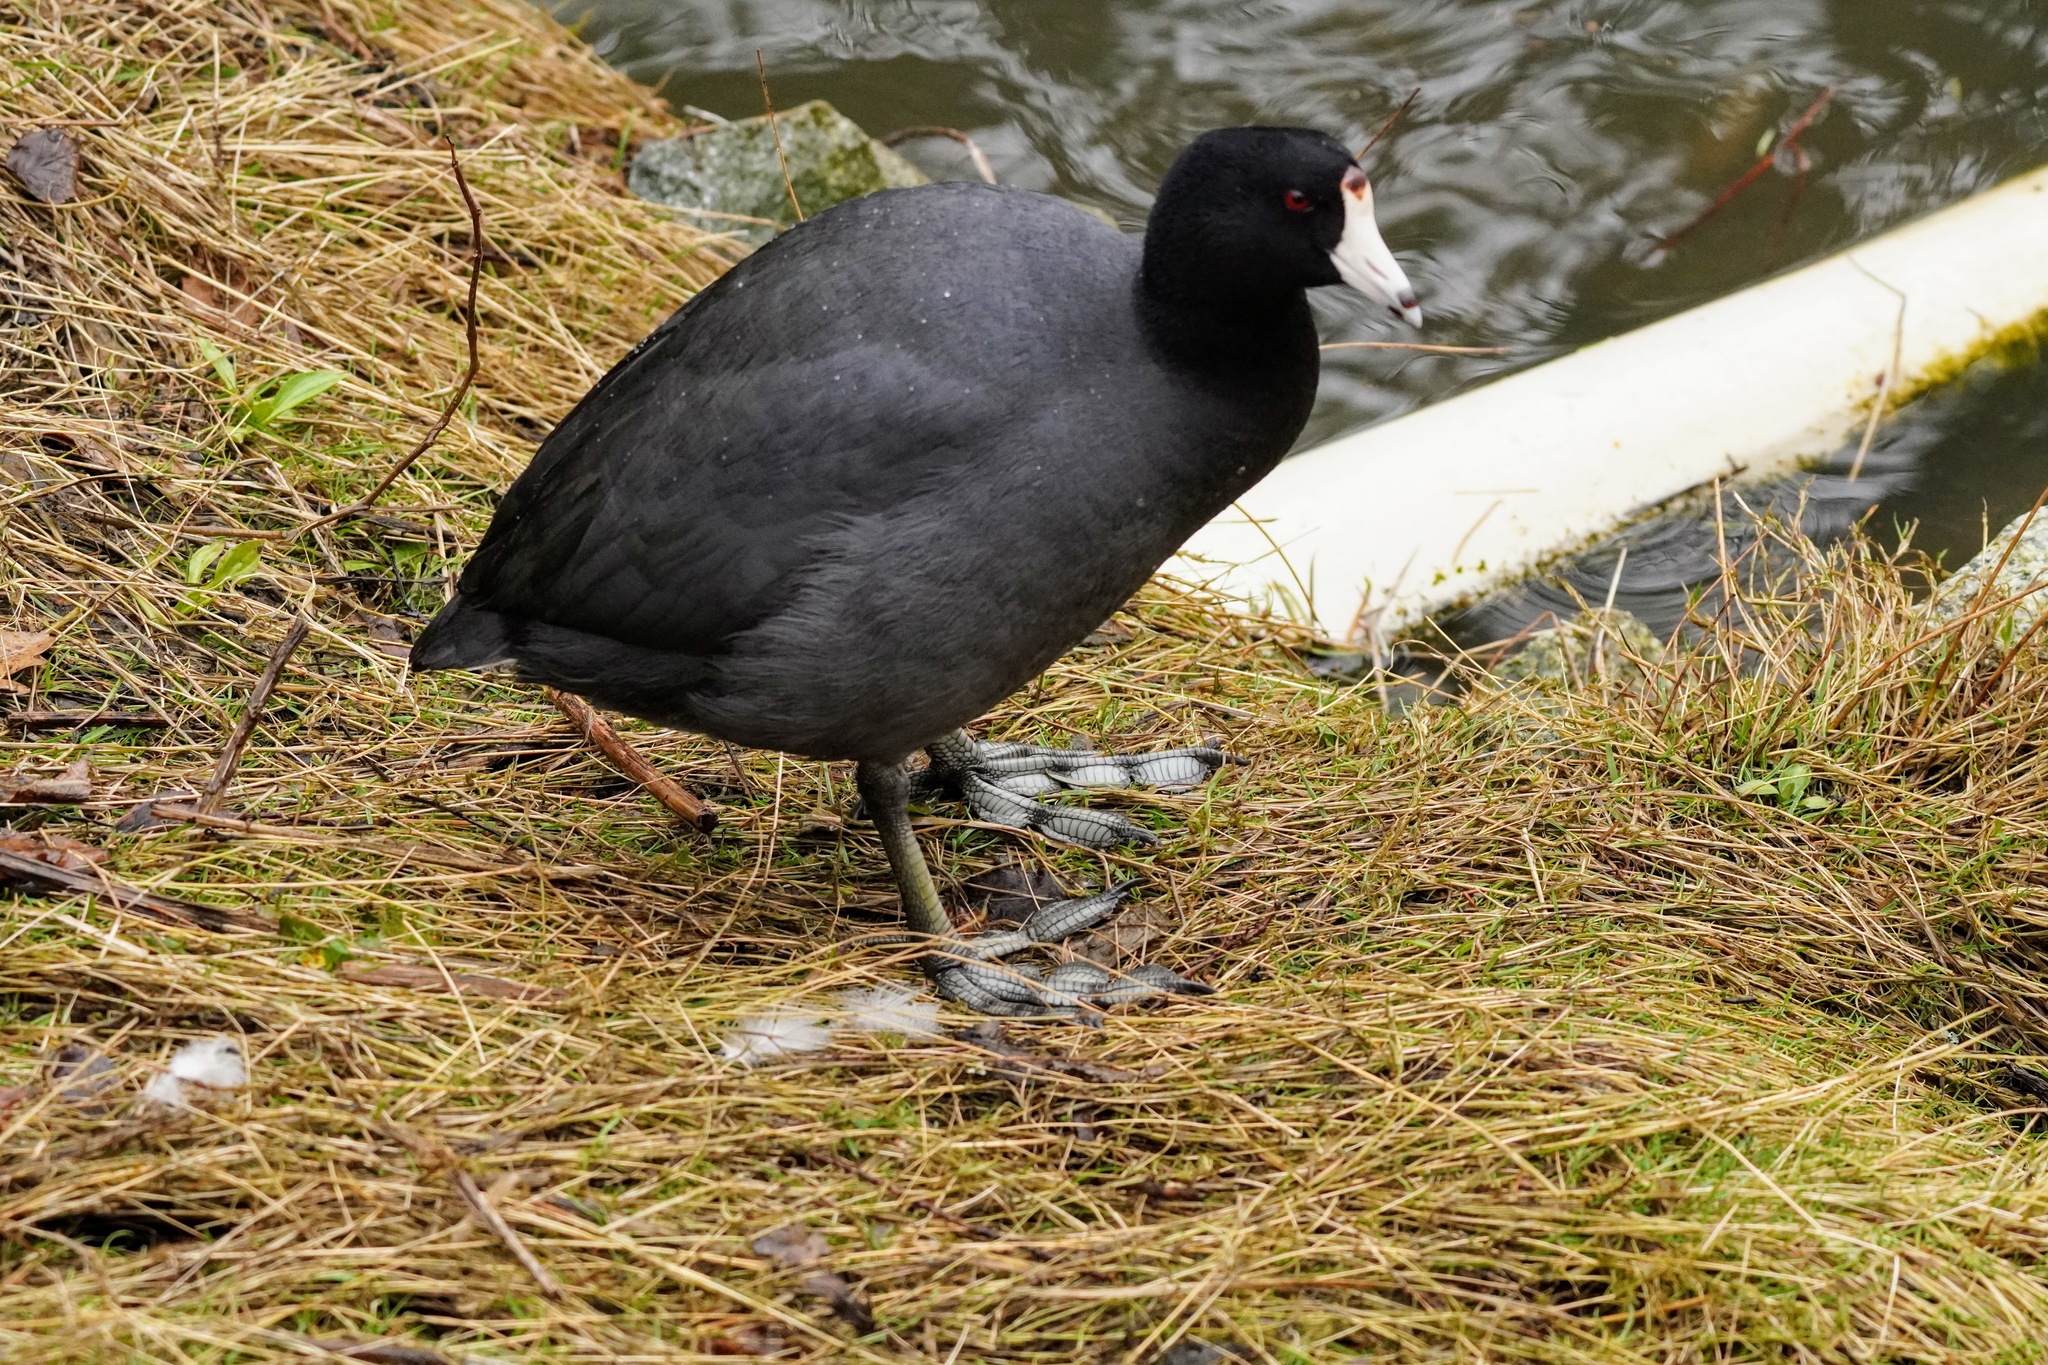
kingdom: Animalia
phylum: Chordata
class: Aves
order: Gruiformes
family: Rallidae
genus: Fulica
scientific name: Fulica americana
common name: American coot
